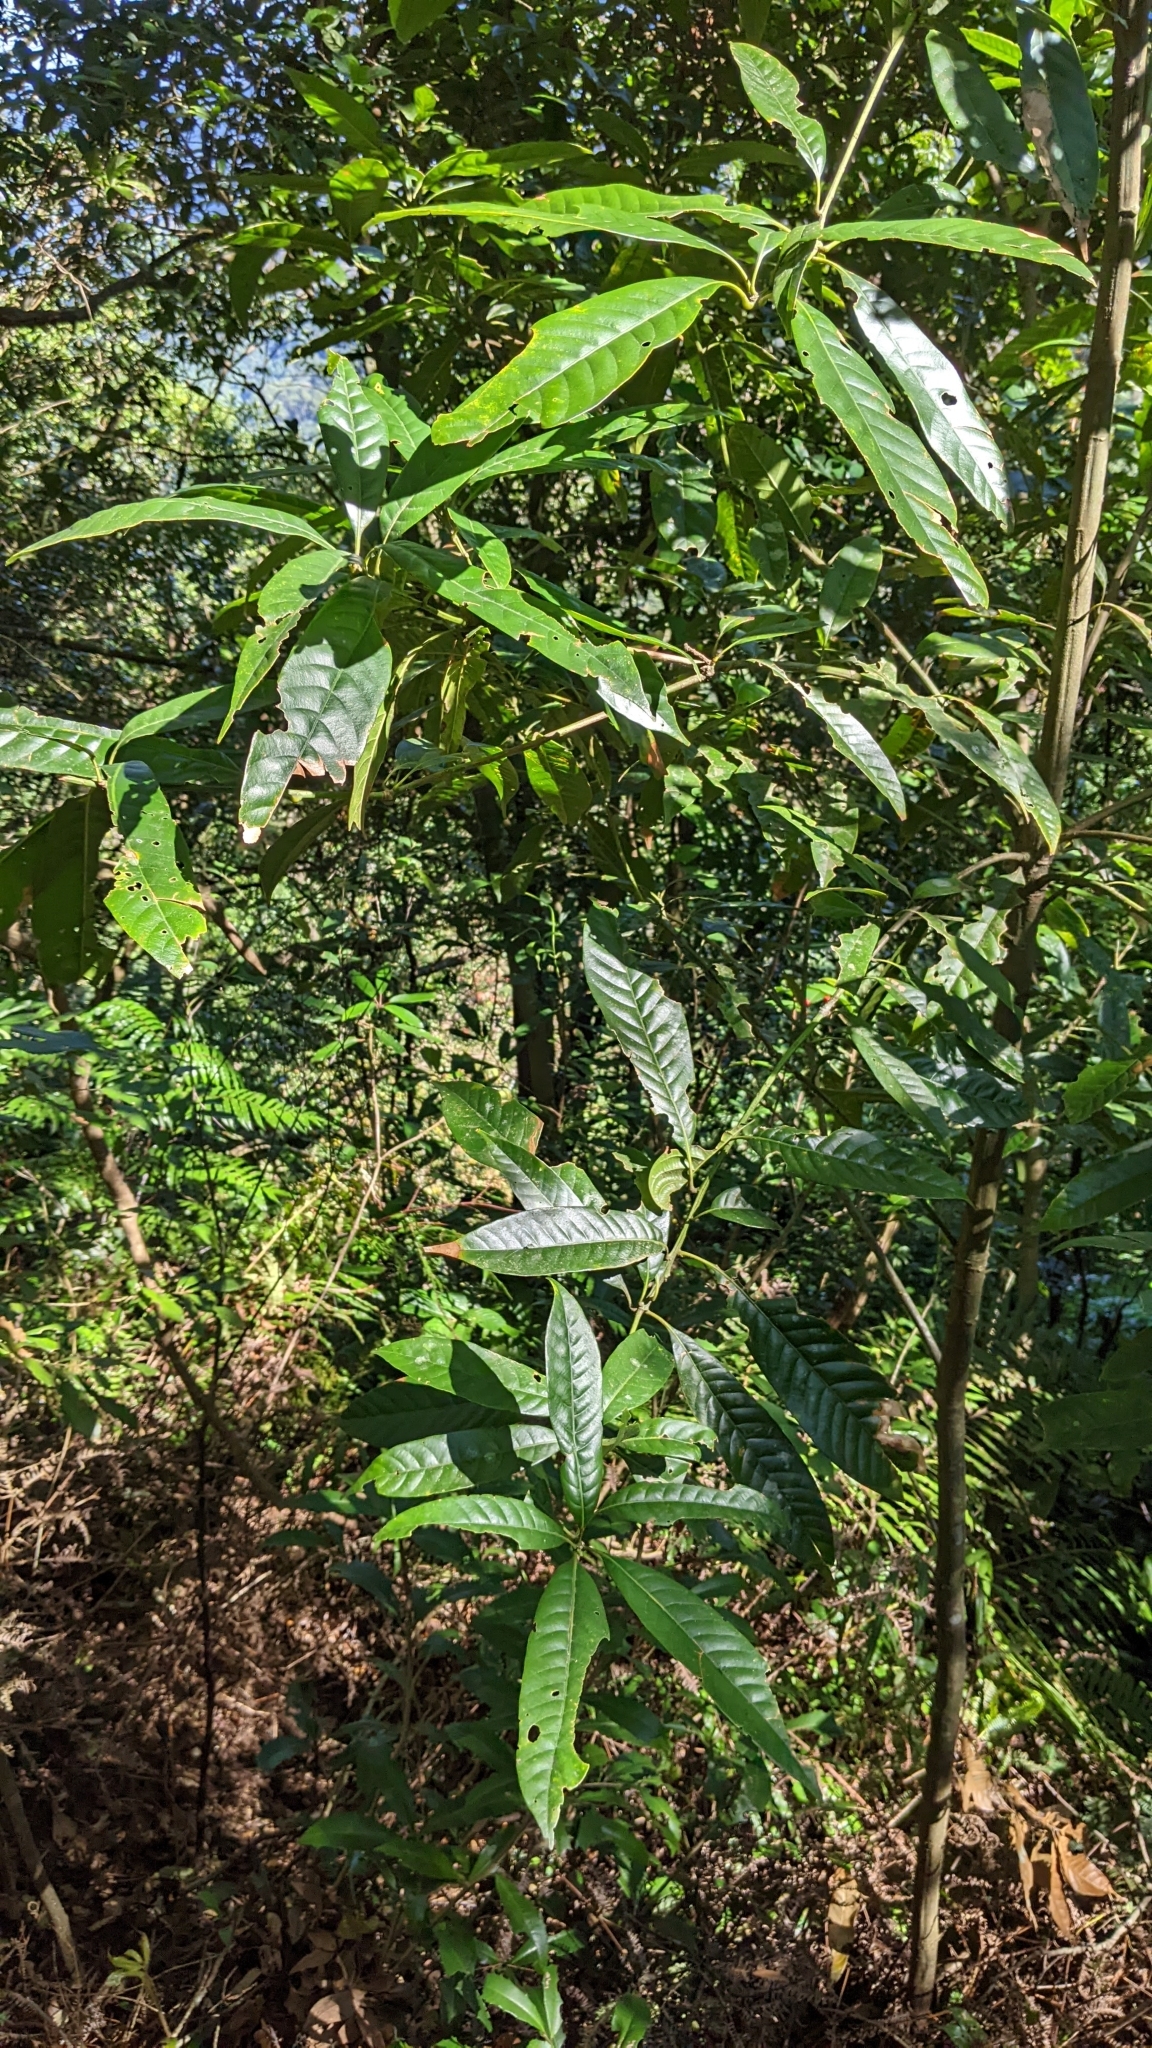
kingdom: Plantae
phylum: Tracheophyta
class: Magnoliopsida
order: Fagales
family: Fagaceae
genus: Lithocarpus
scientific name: Lithocarpus brevicaudatus
